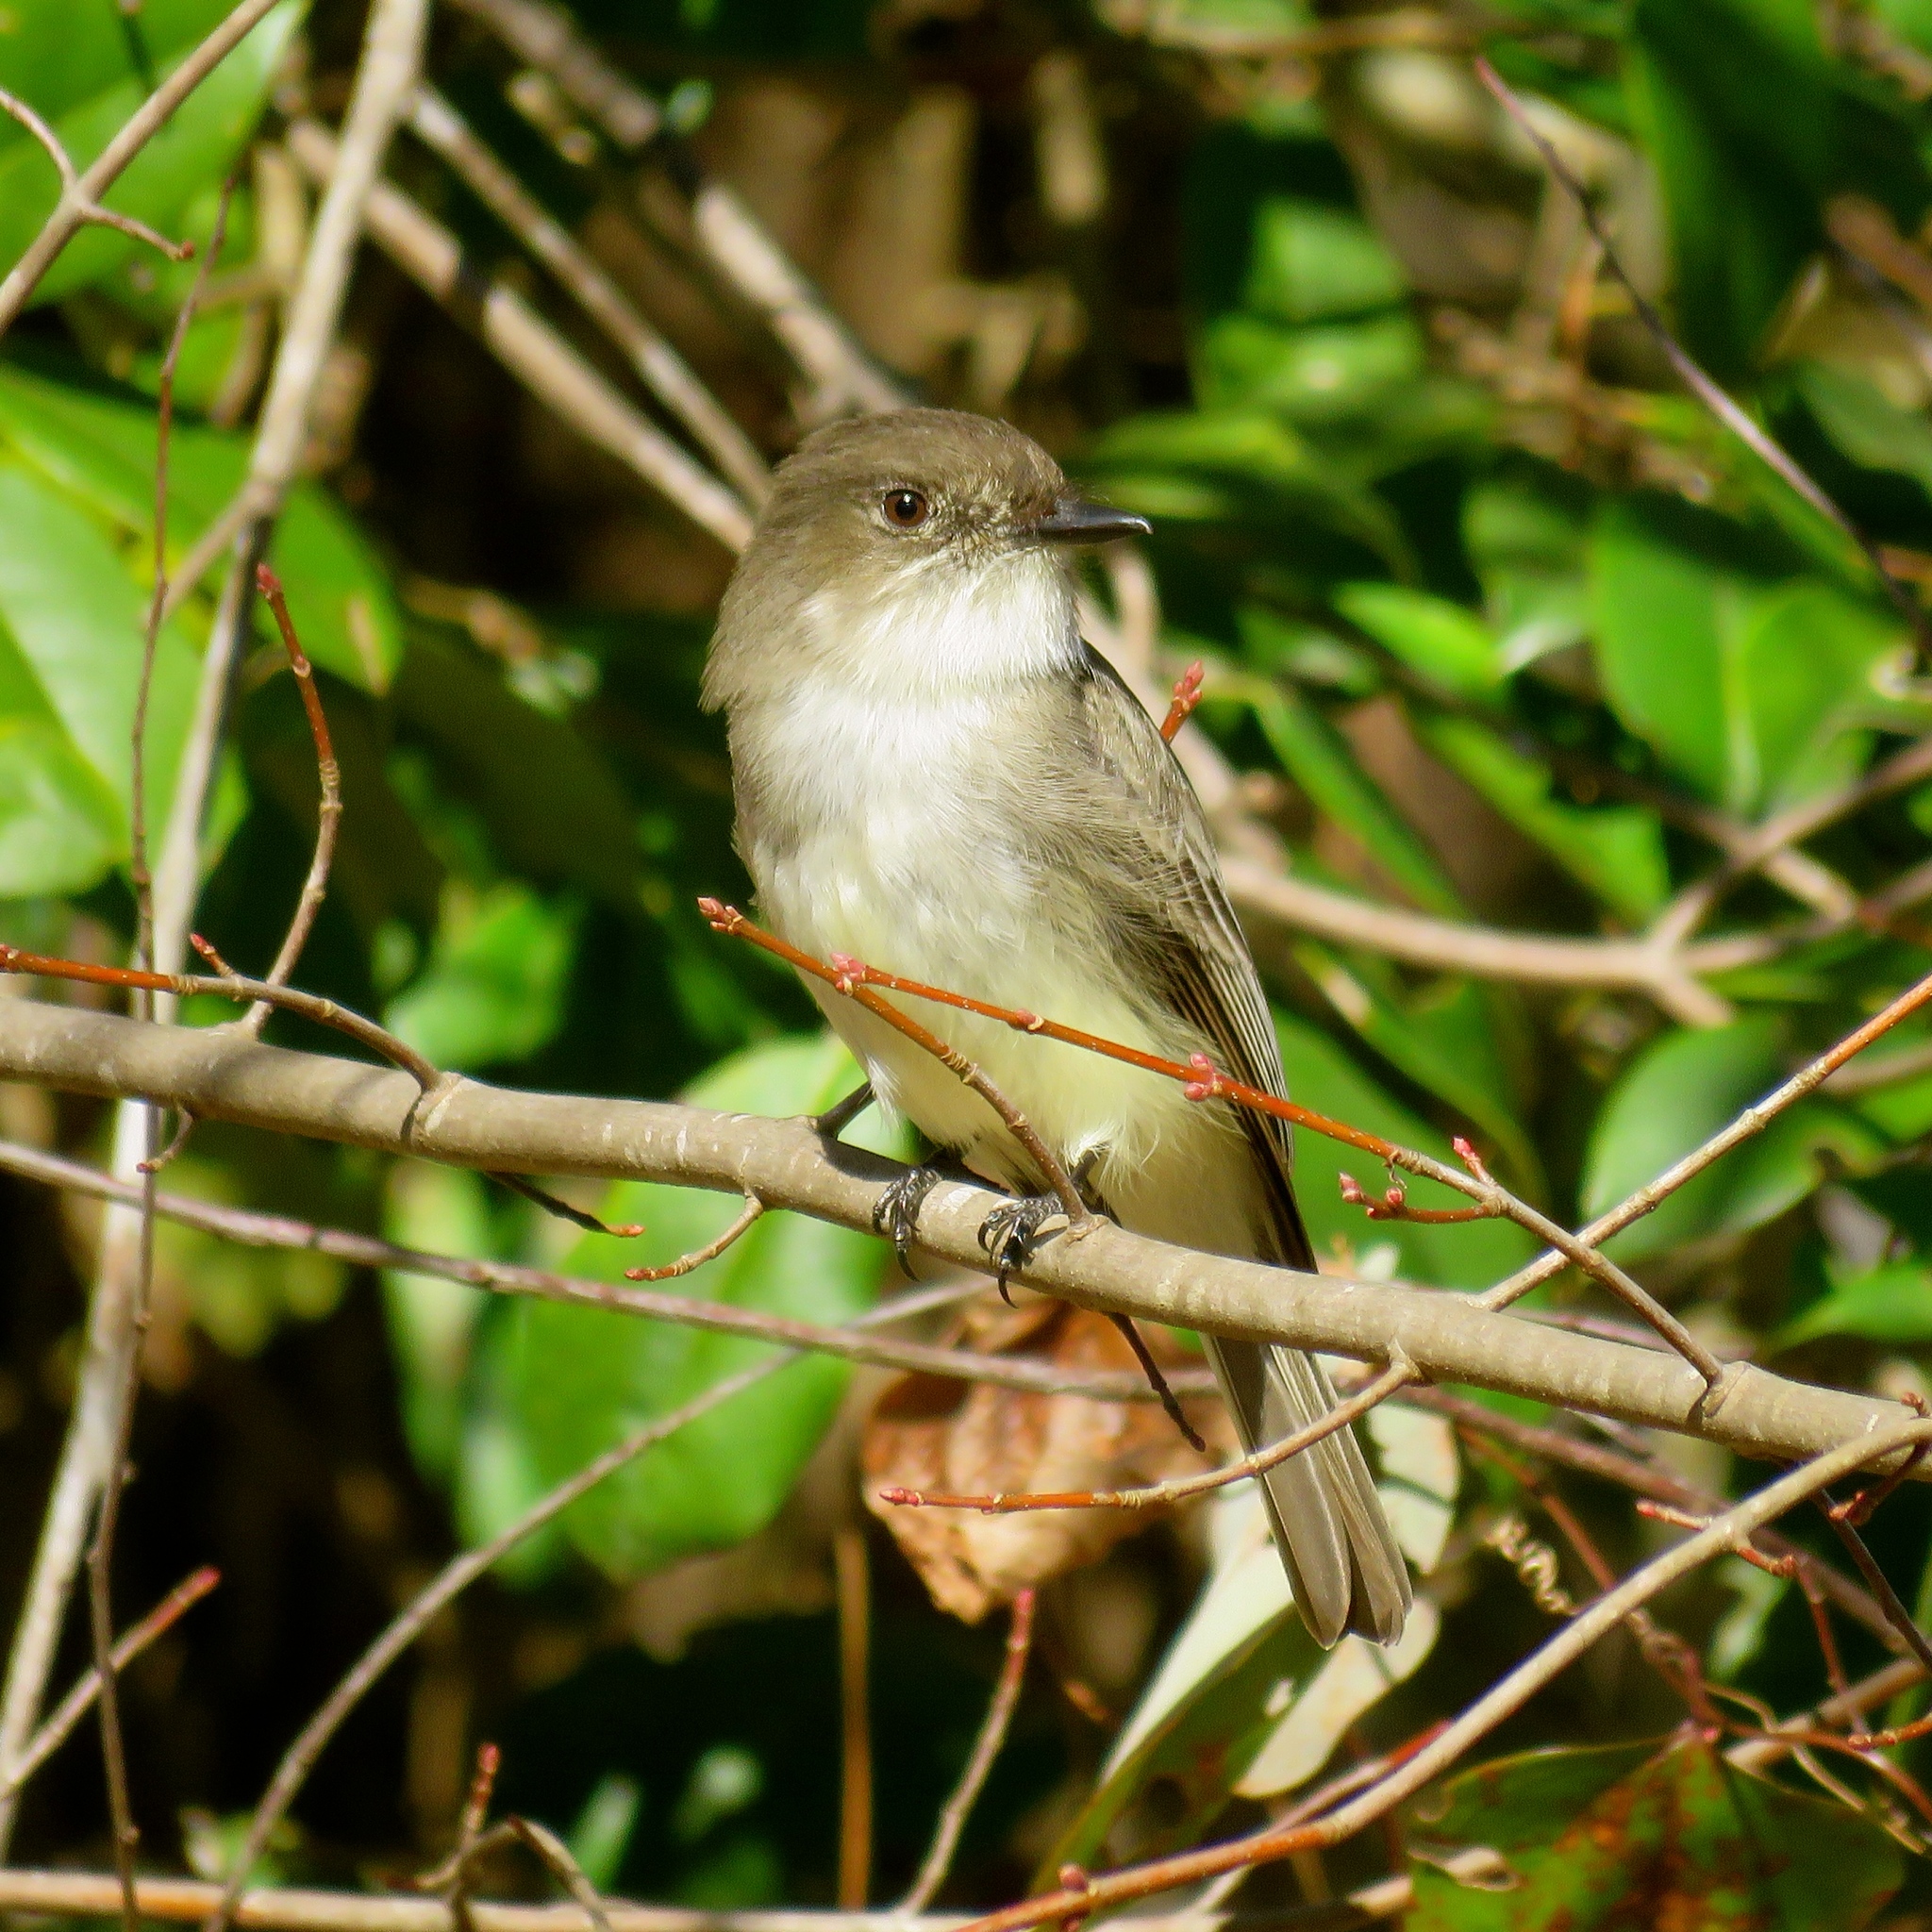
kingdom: Animalia
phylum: Chordata
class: Aves
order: Passeriformes
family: Tyrannidae
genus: Sayornis
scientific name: Sayornis phoebe
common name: Eastern phoebe
